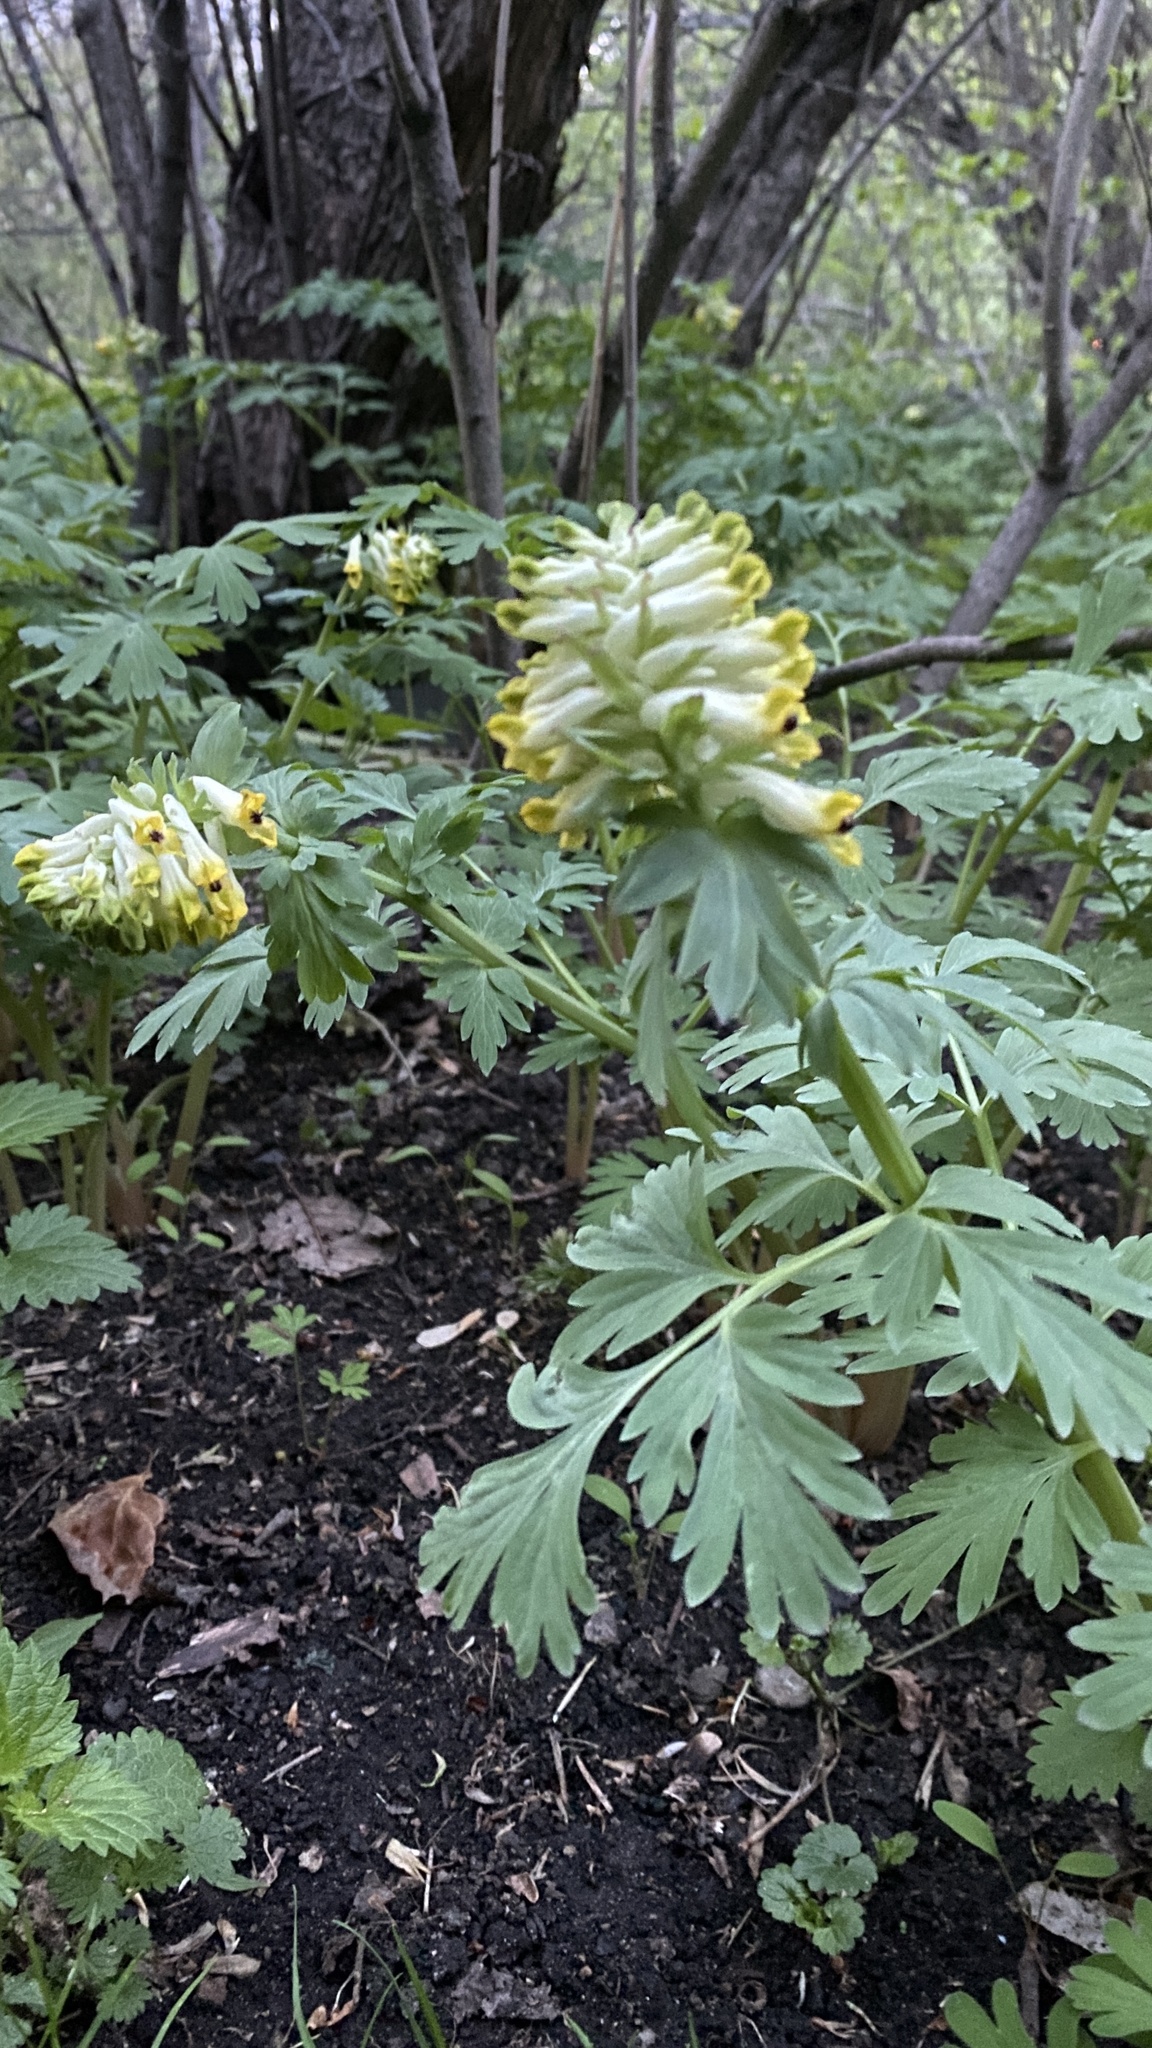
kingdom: Plantae
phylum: Tracheophyta
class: Magnoliopsida
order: Ranunculales
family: Papaveraceae
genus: Corydalis
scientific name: Corydalis nobilis
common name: Siberian corydalis
